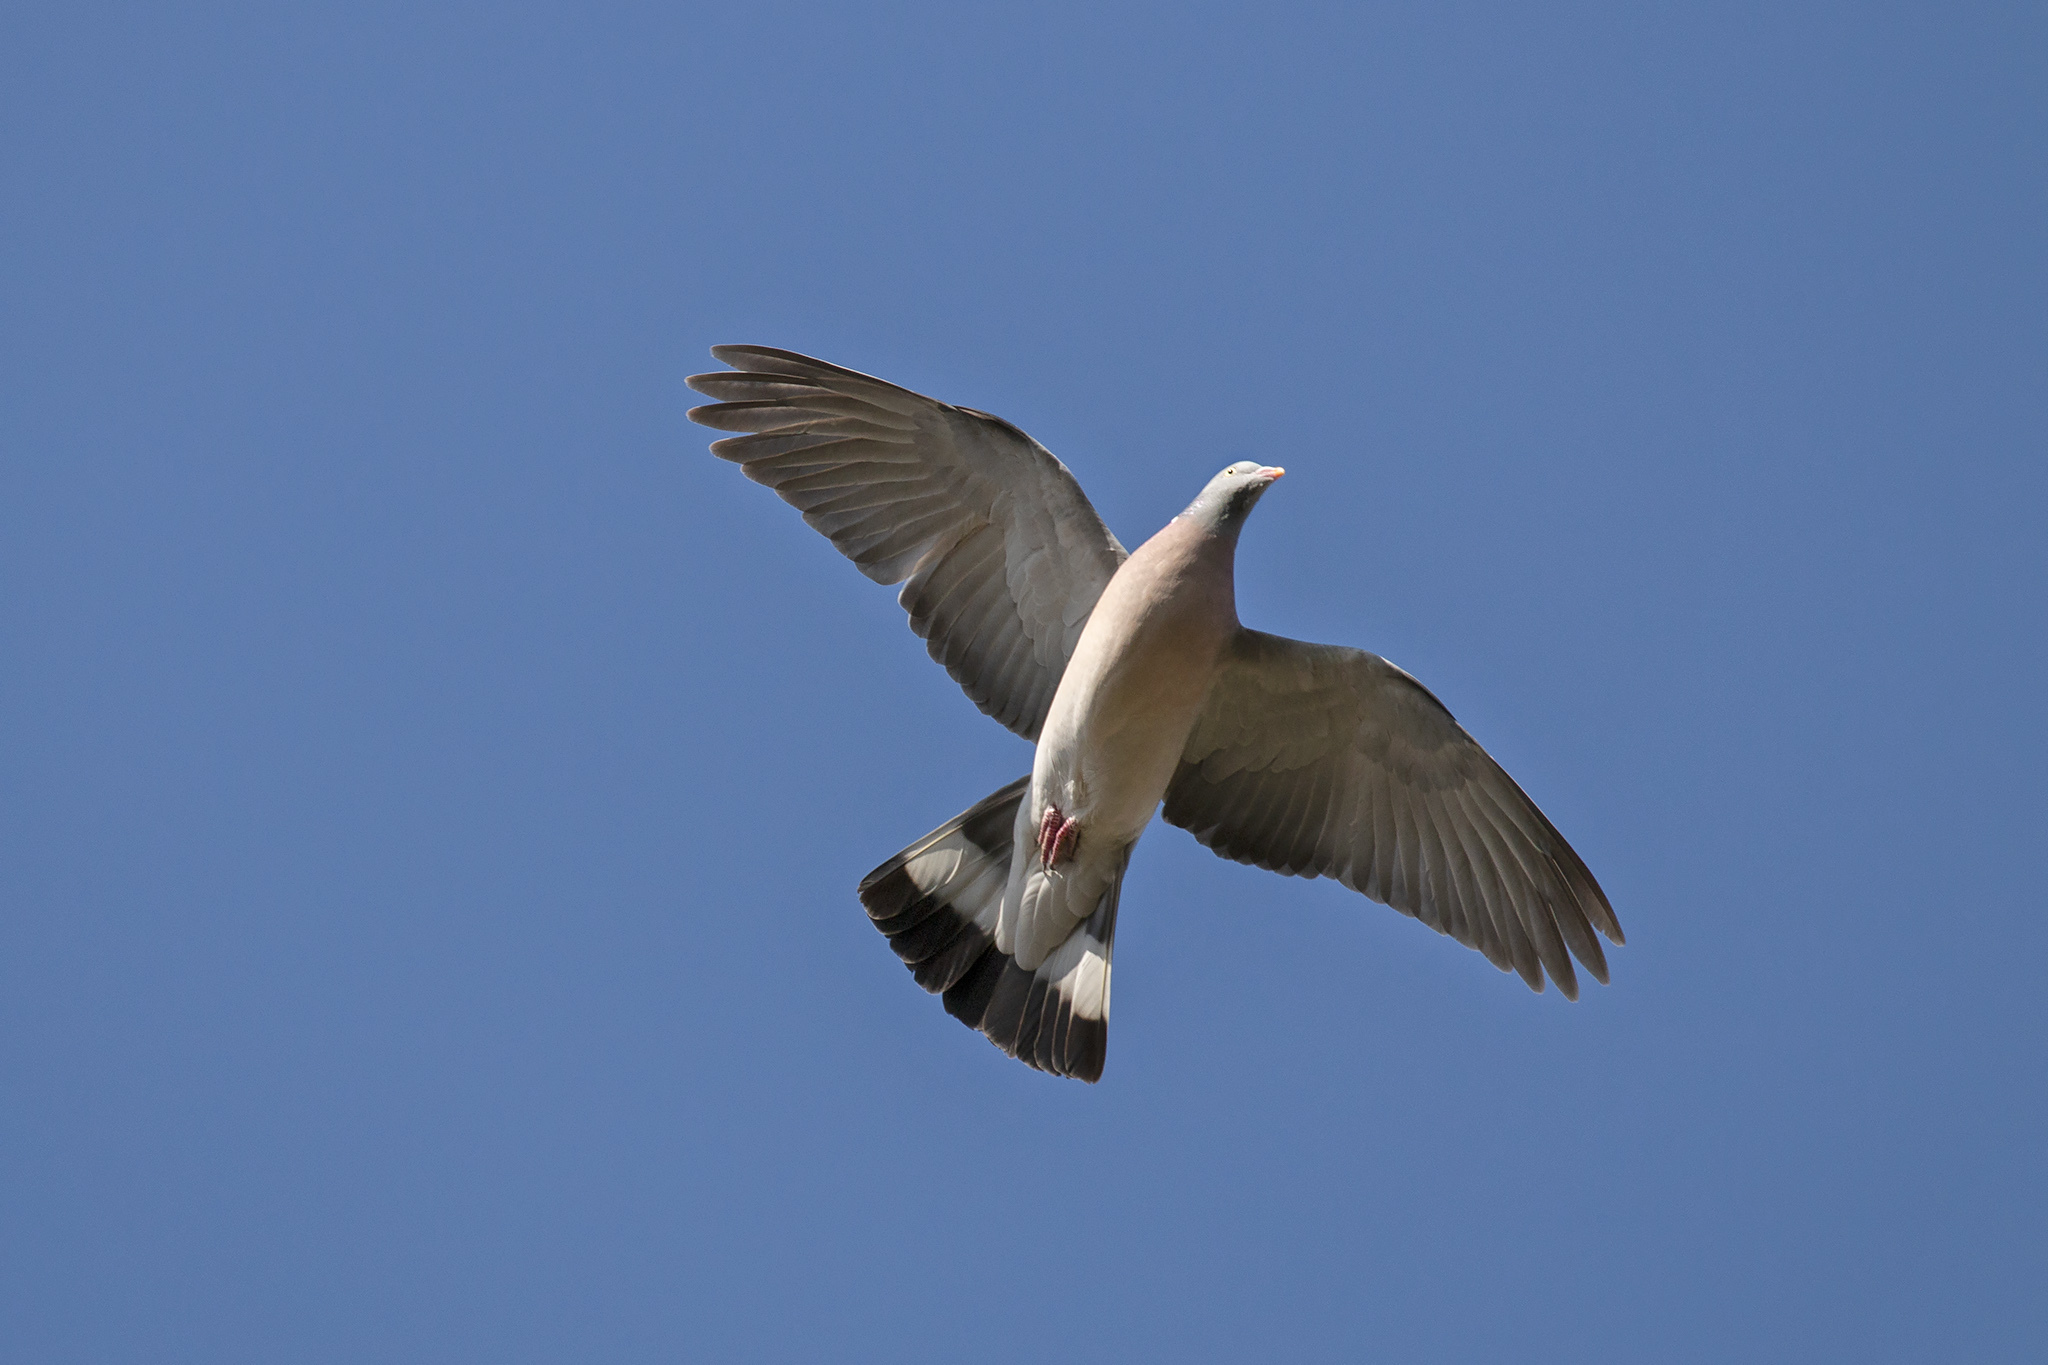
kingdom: Animalia
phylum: Chordata
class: Aves
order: Columbiformes
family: Columbidae
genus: Columba
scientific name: Columba palumbus
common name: Common wood pigeon
